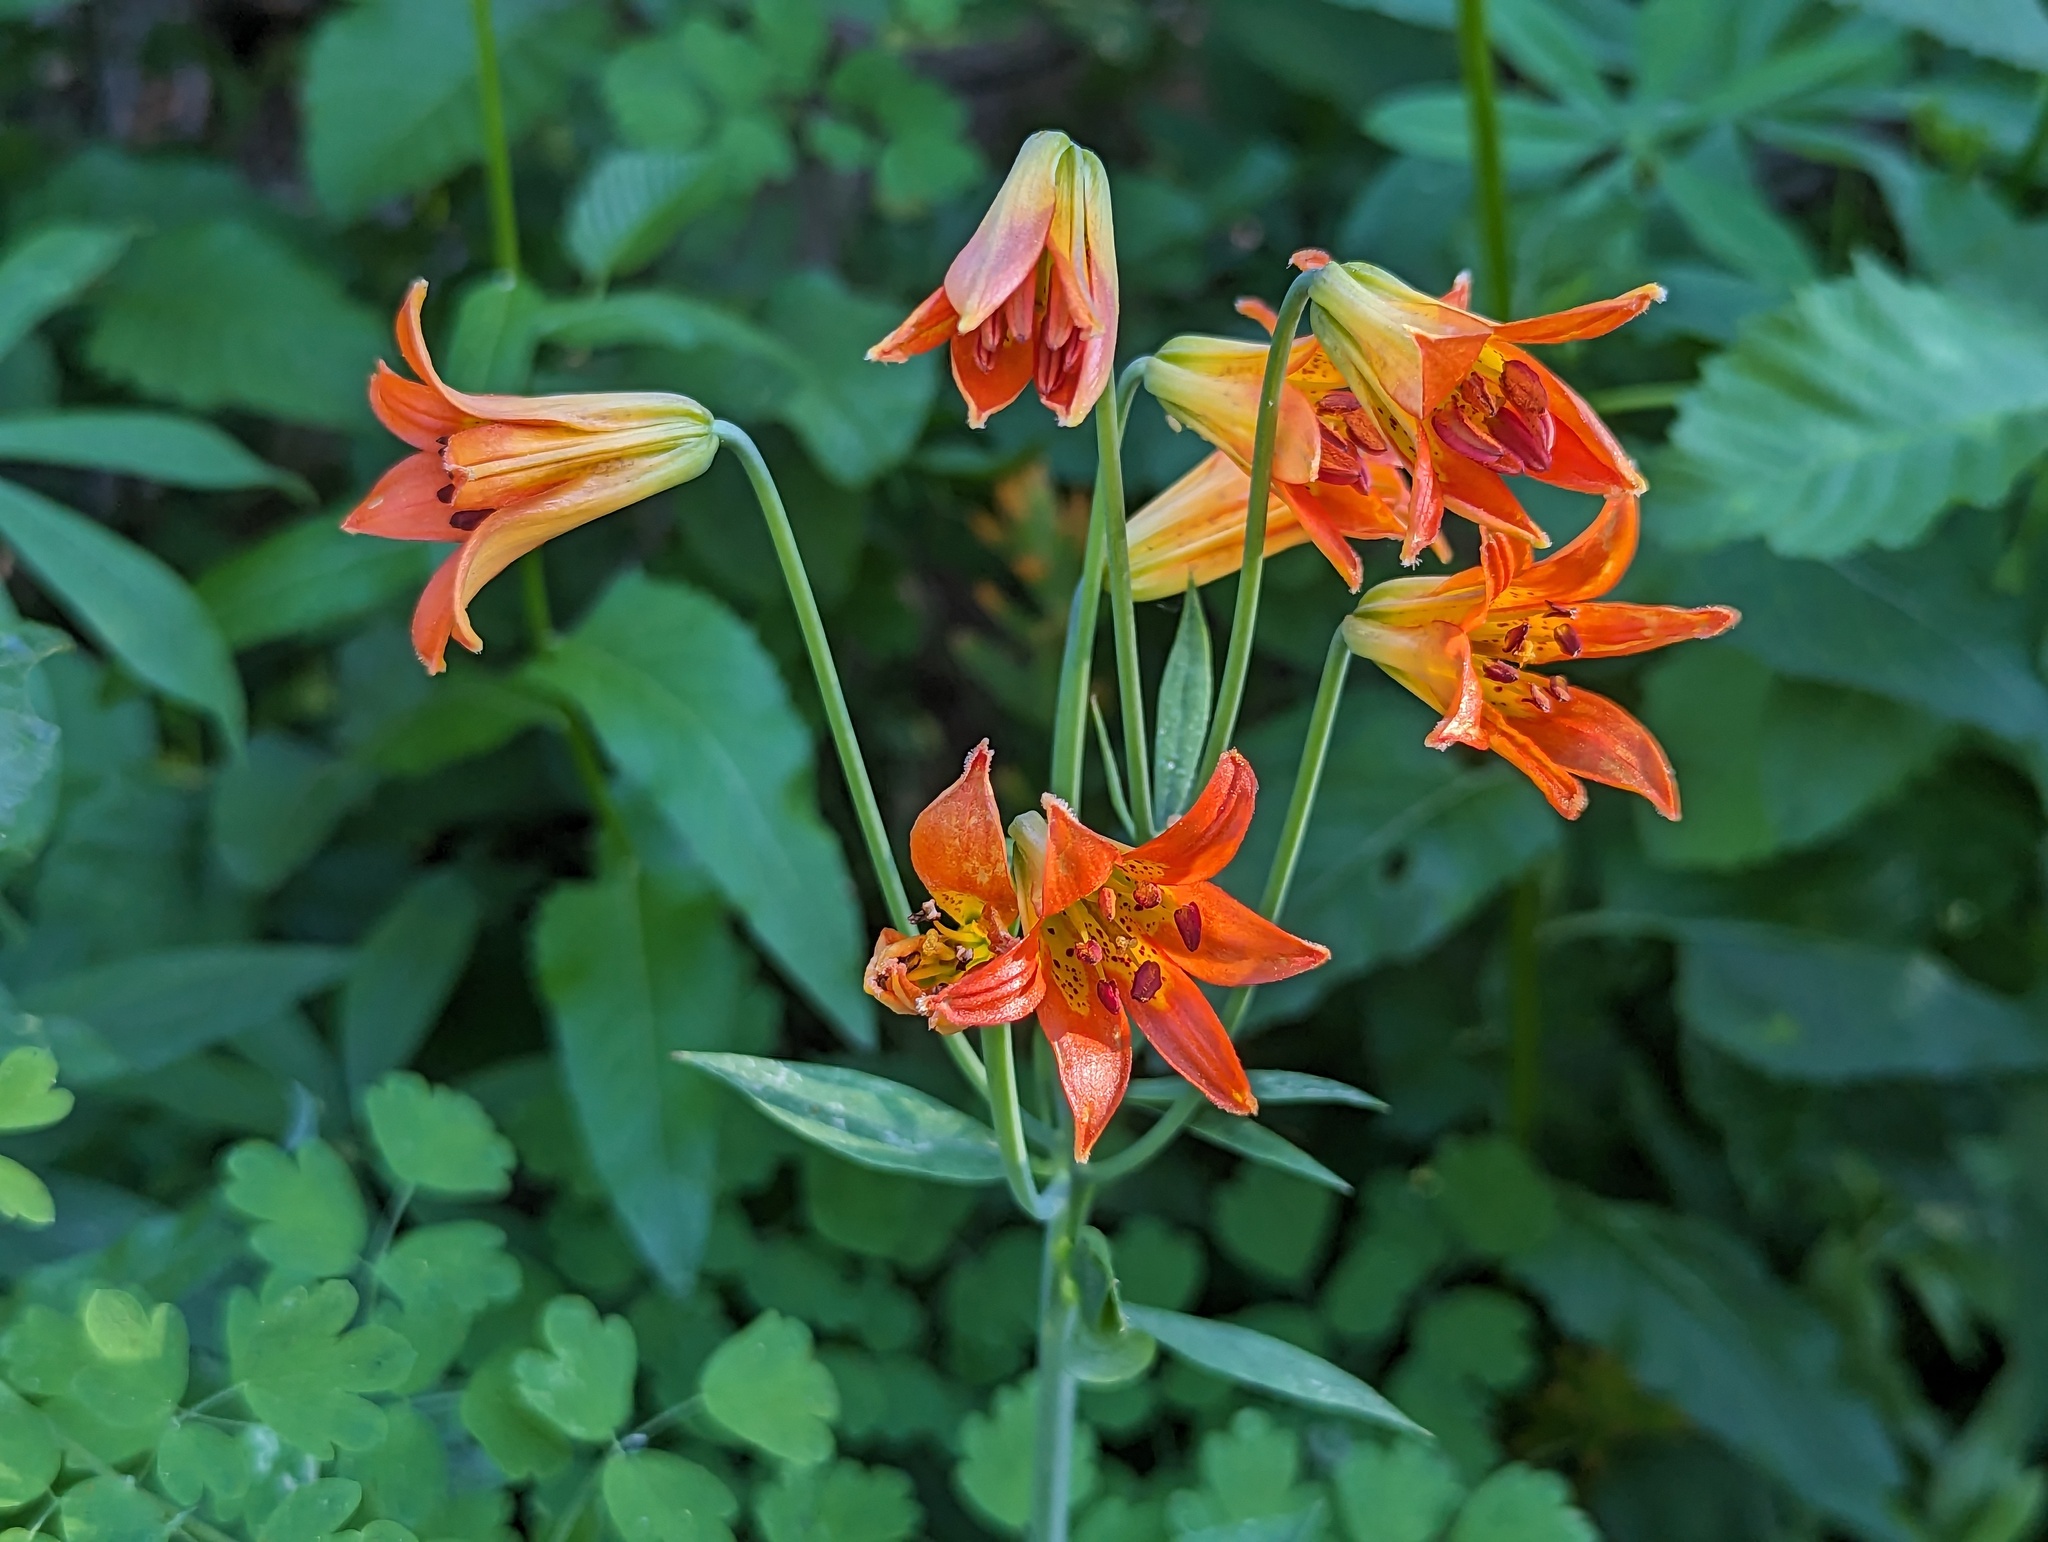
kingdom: Plantae
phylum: Tracheophyta
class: Liliopsida
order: Liliales
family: Liliaceae
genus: Lilium
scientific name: Lilium parvum
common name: Alpine lily
